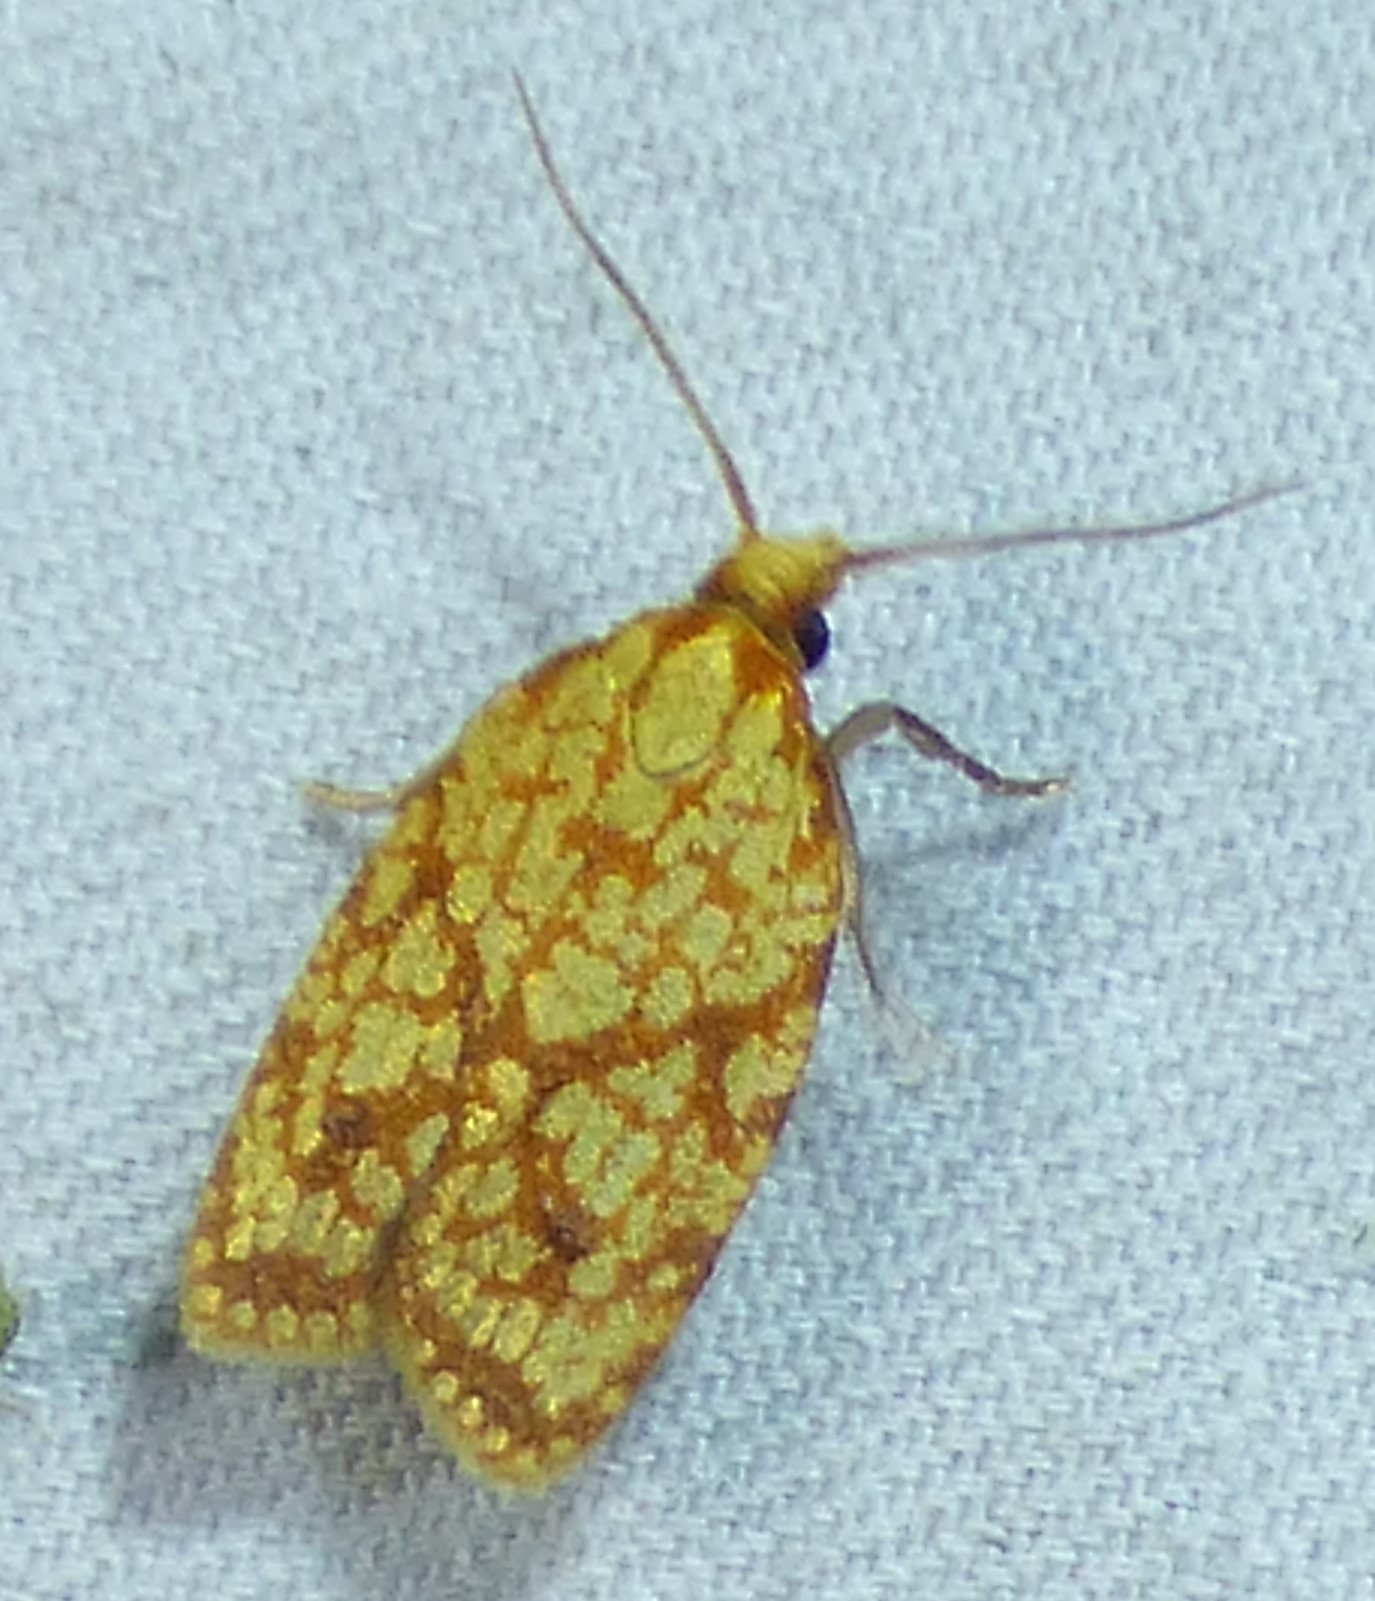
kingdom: Animalia
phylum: Arthropoda
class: Insecta
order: Lepidoptera
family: Tortricidae
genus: Sparganothis
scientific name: Sparganothis sulfureana
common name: Sparganothis fruitworm moth
